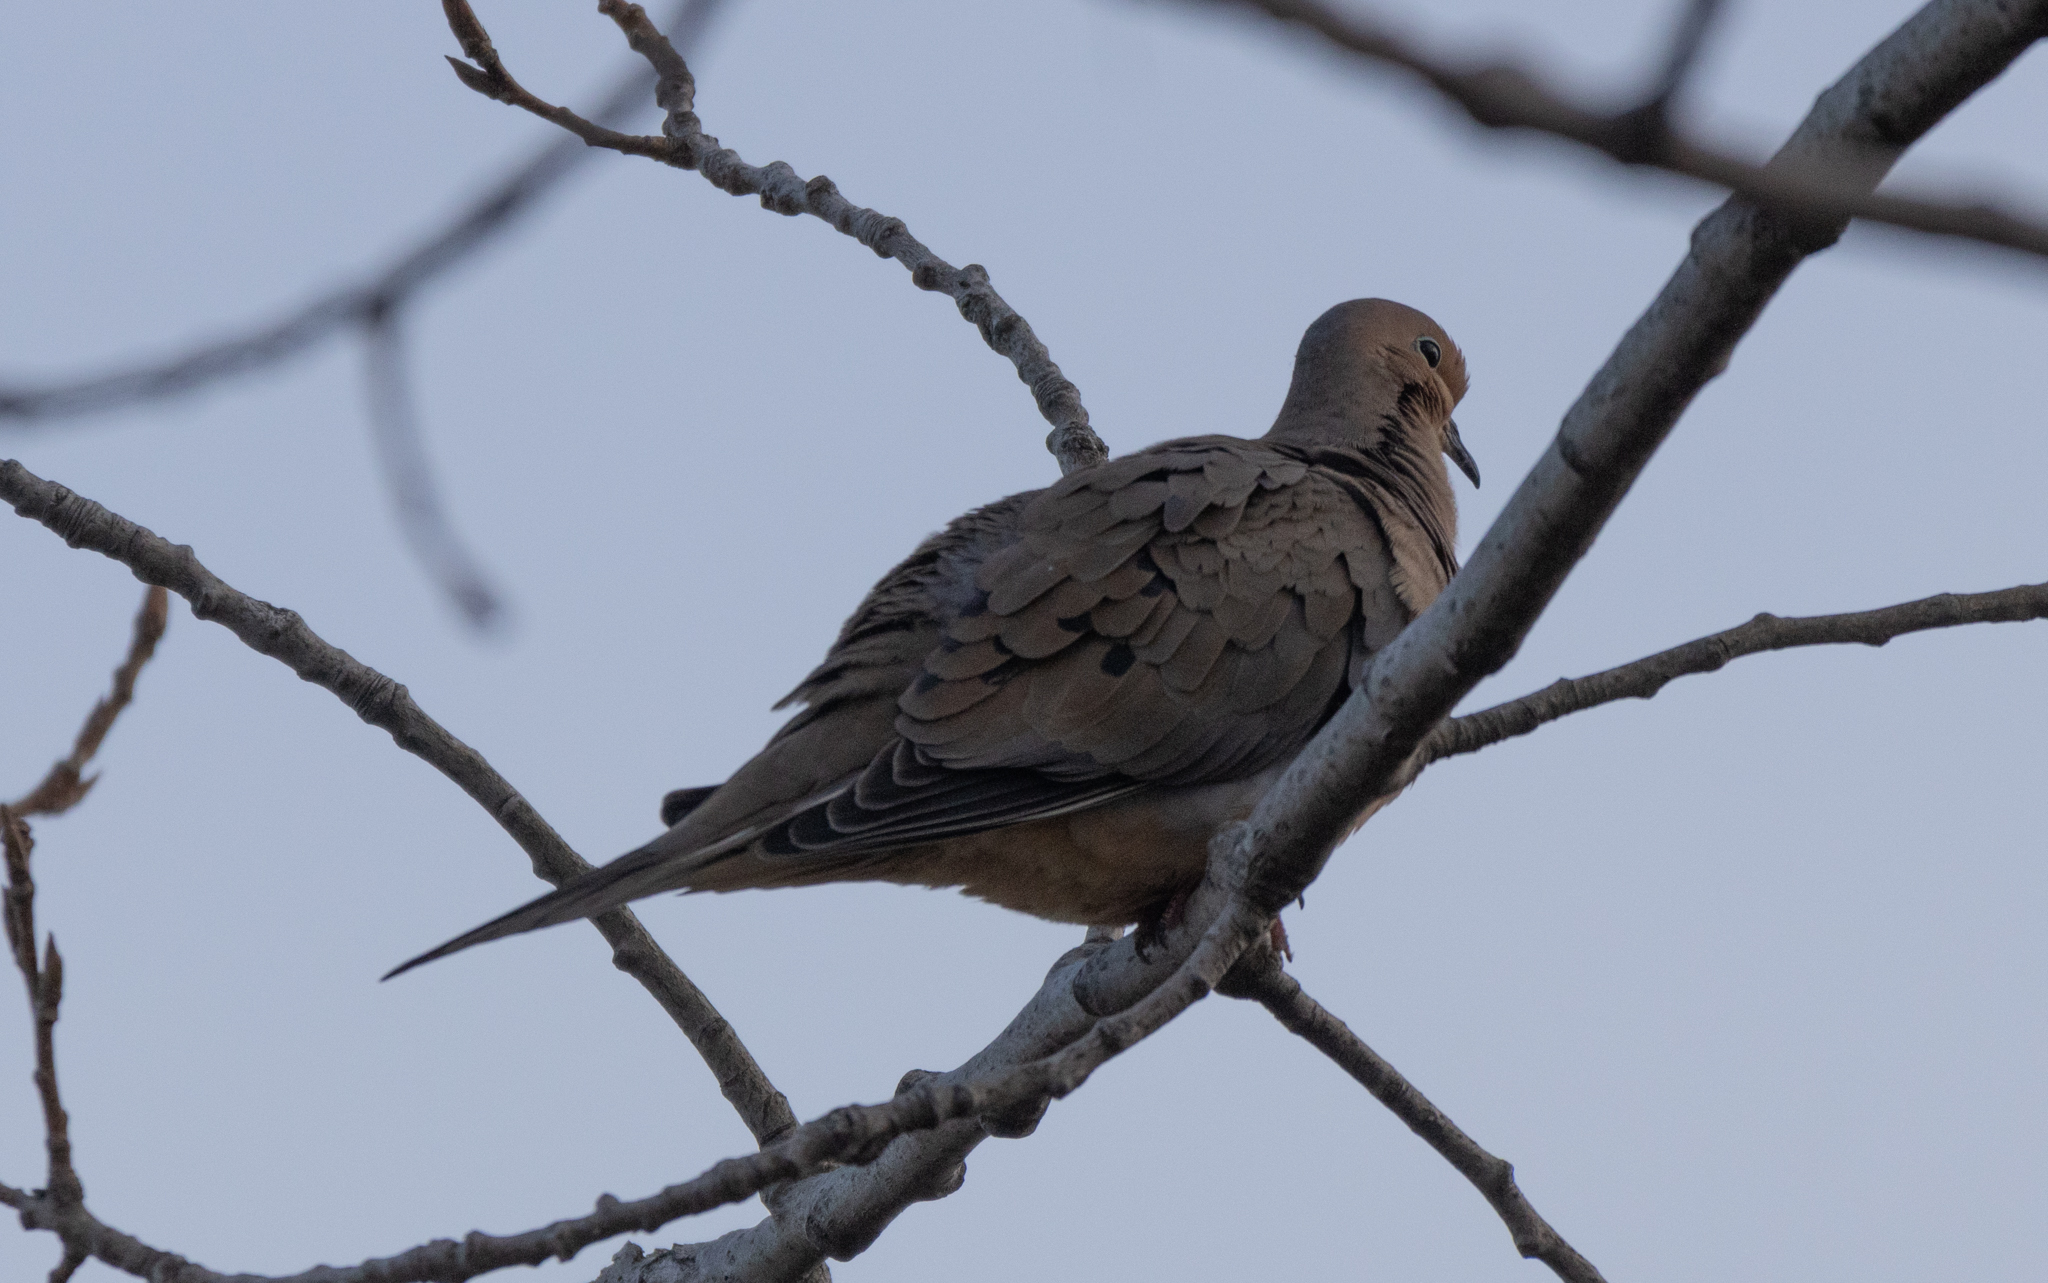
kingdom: Animalia
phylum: Chordata
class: Aves
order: Columbiformes
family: Columbidae
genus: Zenaida
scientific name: Zenaida macroura
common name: Mourning dove
